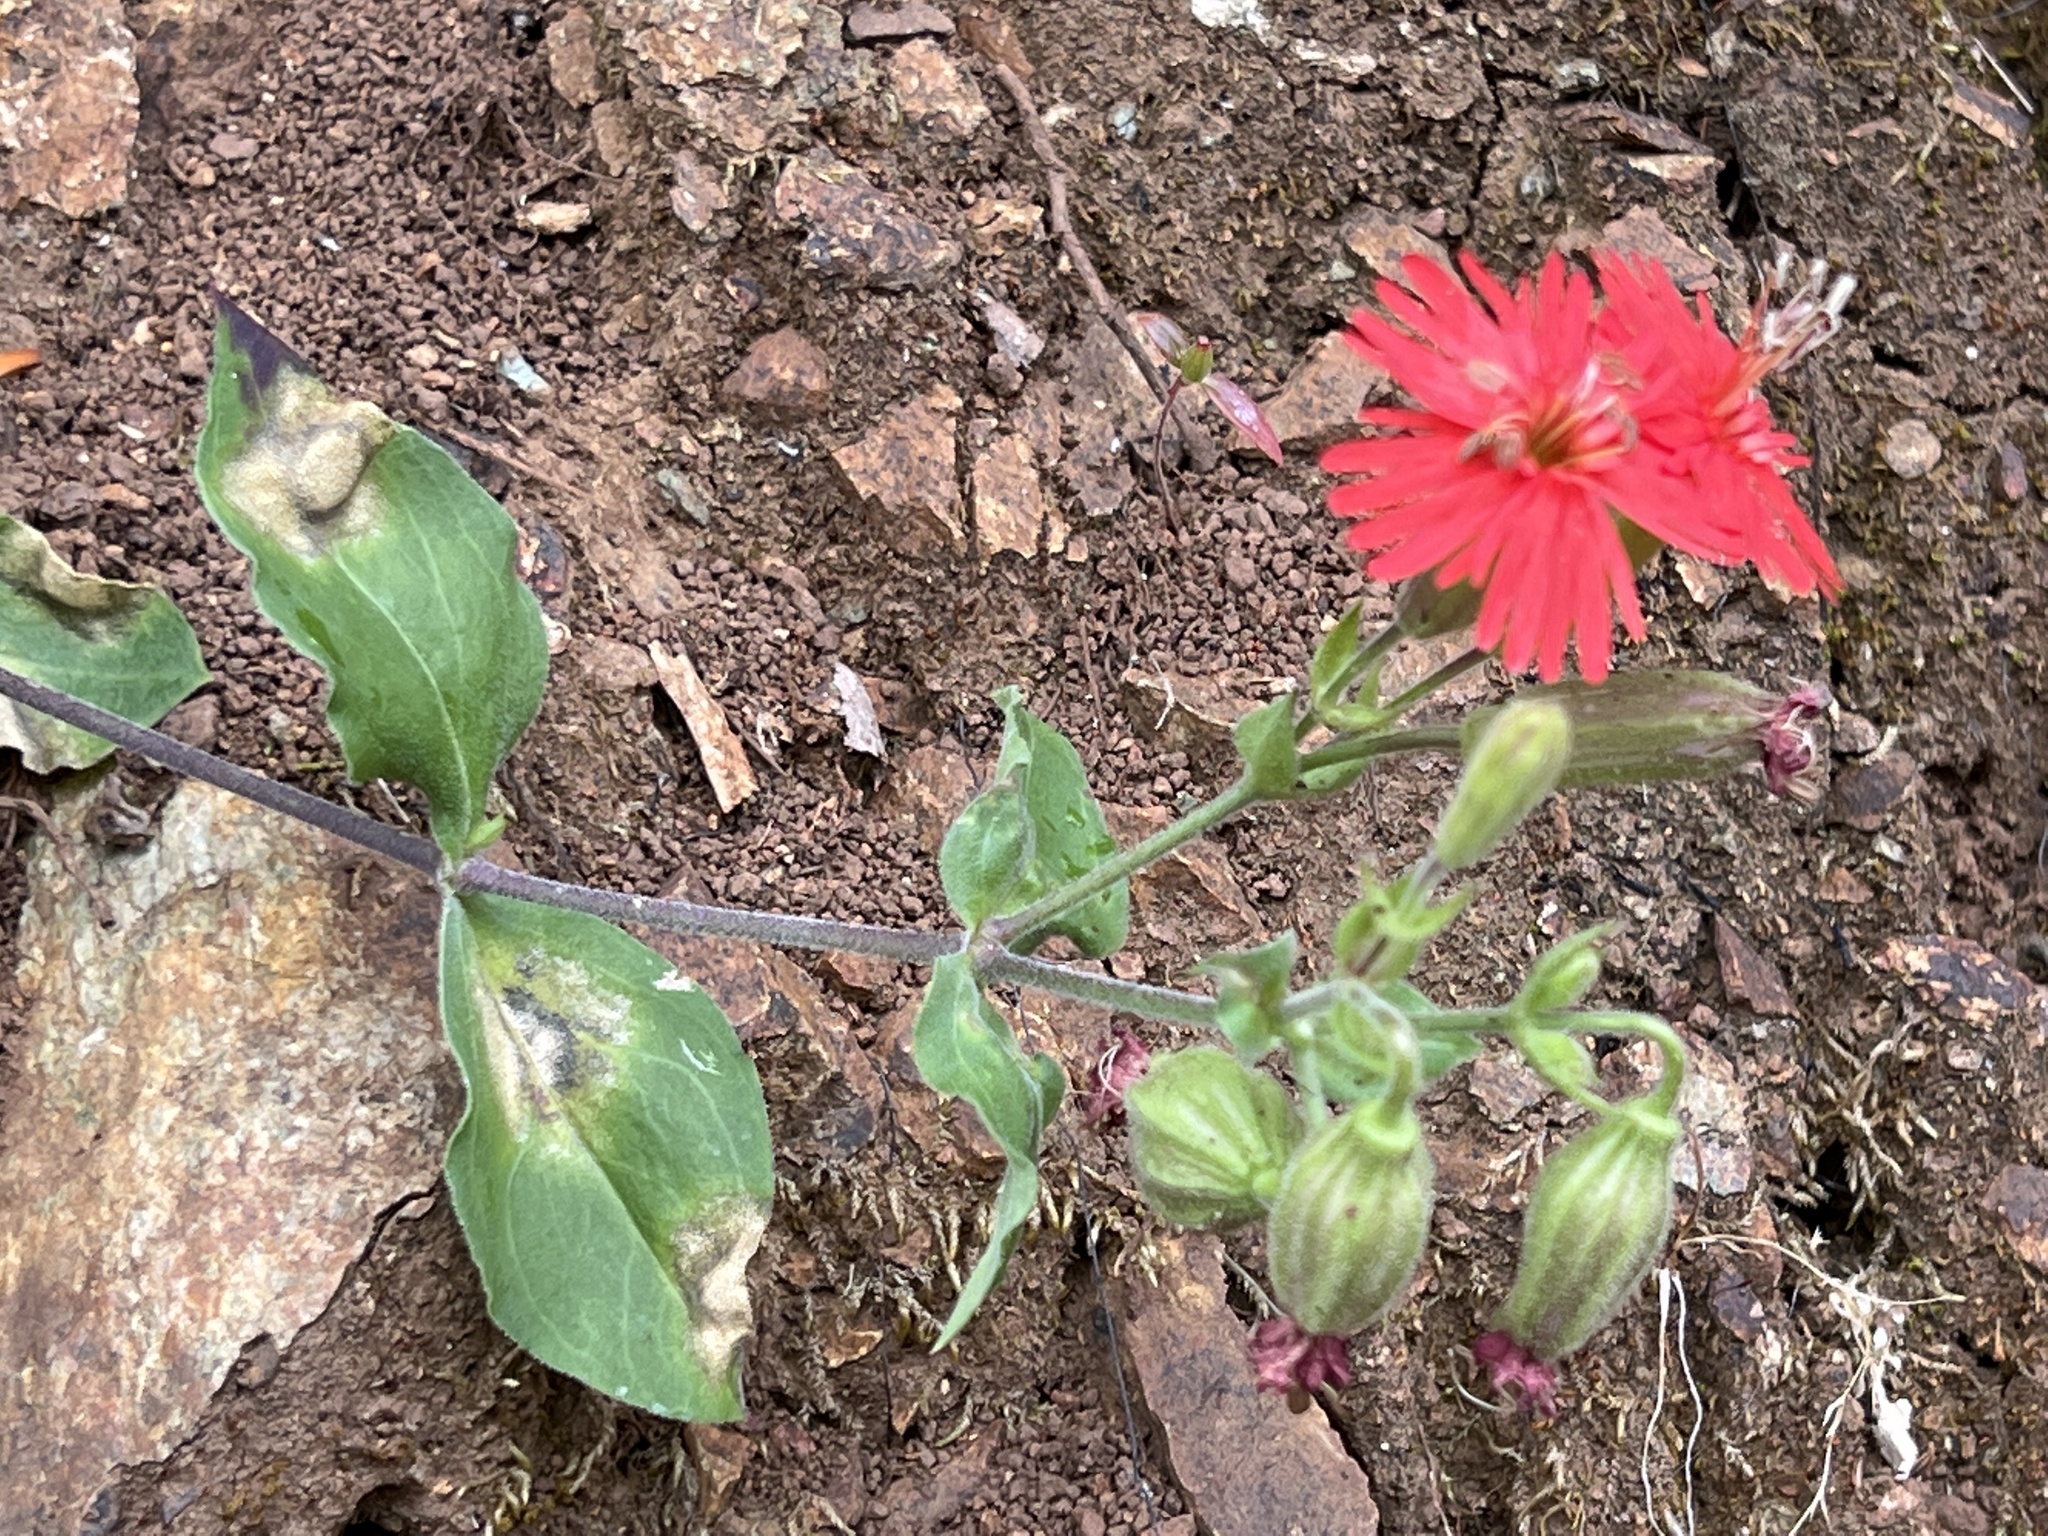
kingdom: Plantae
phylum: Tracheophyta
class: Magnoliopsida
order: Caryophyllales
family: Caryophyllaceae
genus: Silene
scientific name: Silene laciniata
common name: Indian-pink
